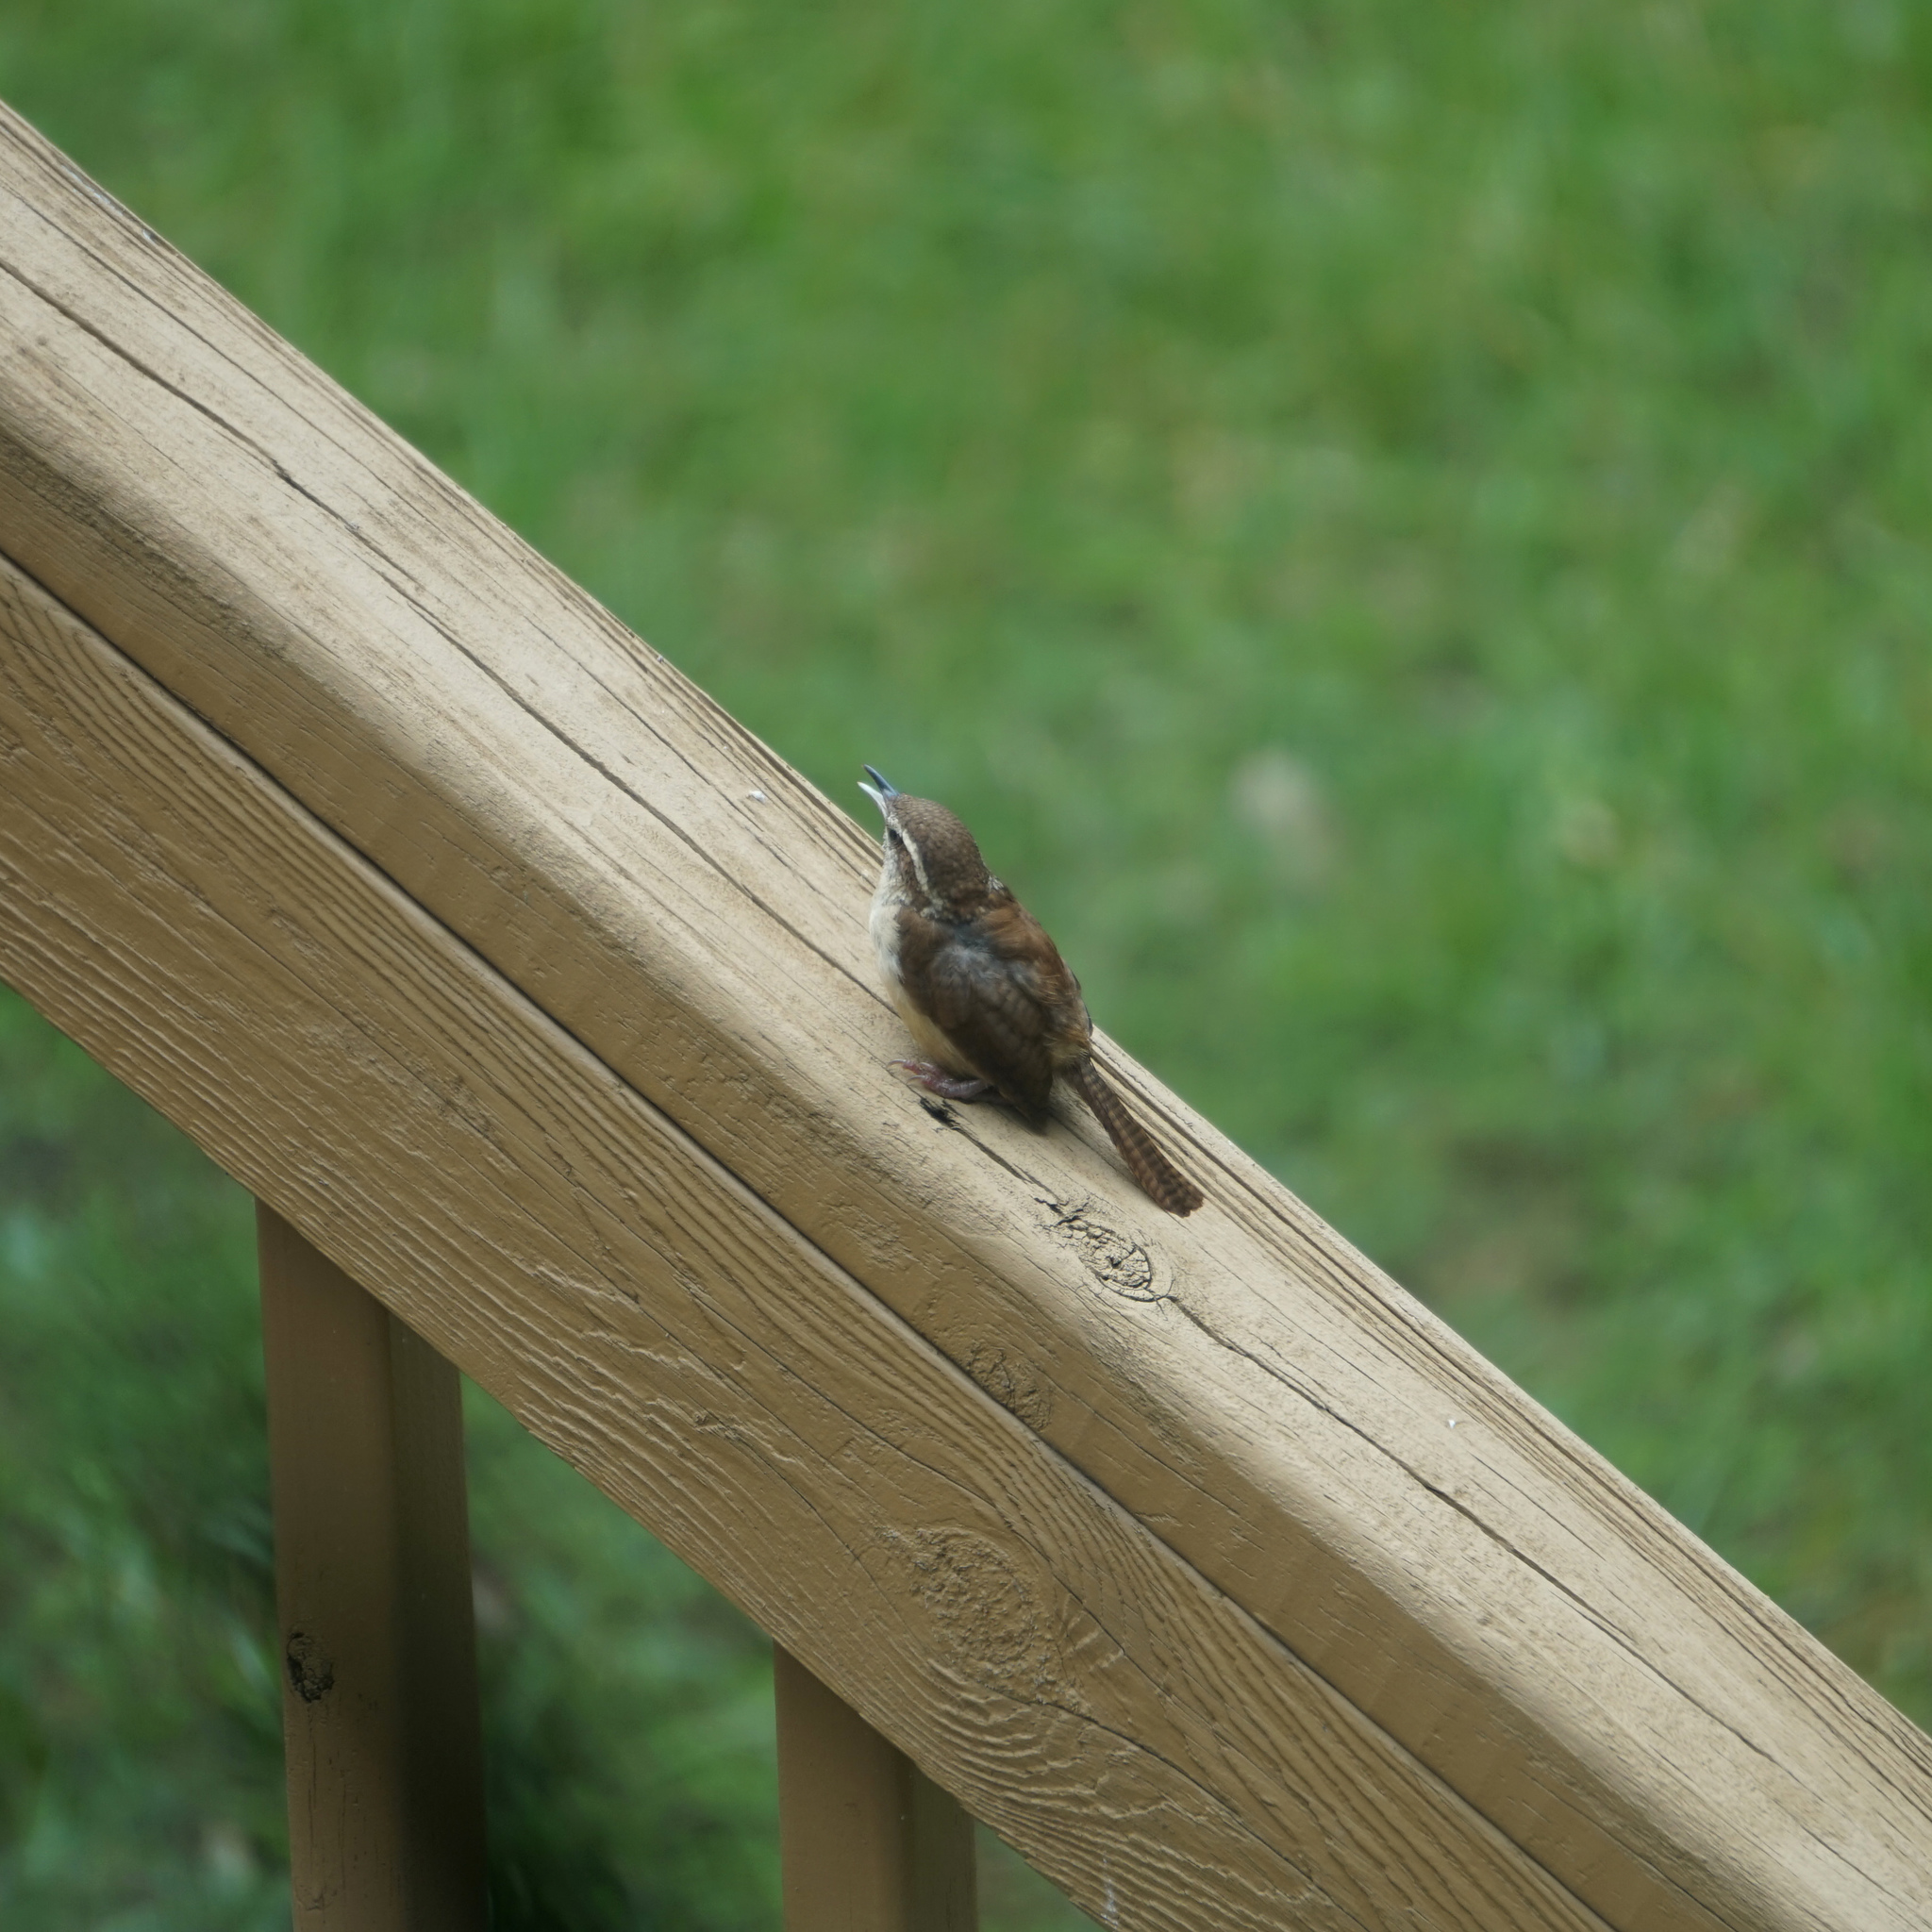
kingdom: Animalia
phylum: Chordata
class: Aves
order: Passeriformes
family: Troglodytidae
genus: Thryothorus
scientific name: Thryothorus ludovicianus
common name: Carolina wren
